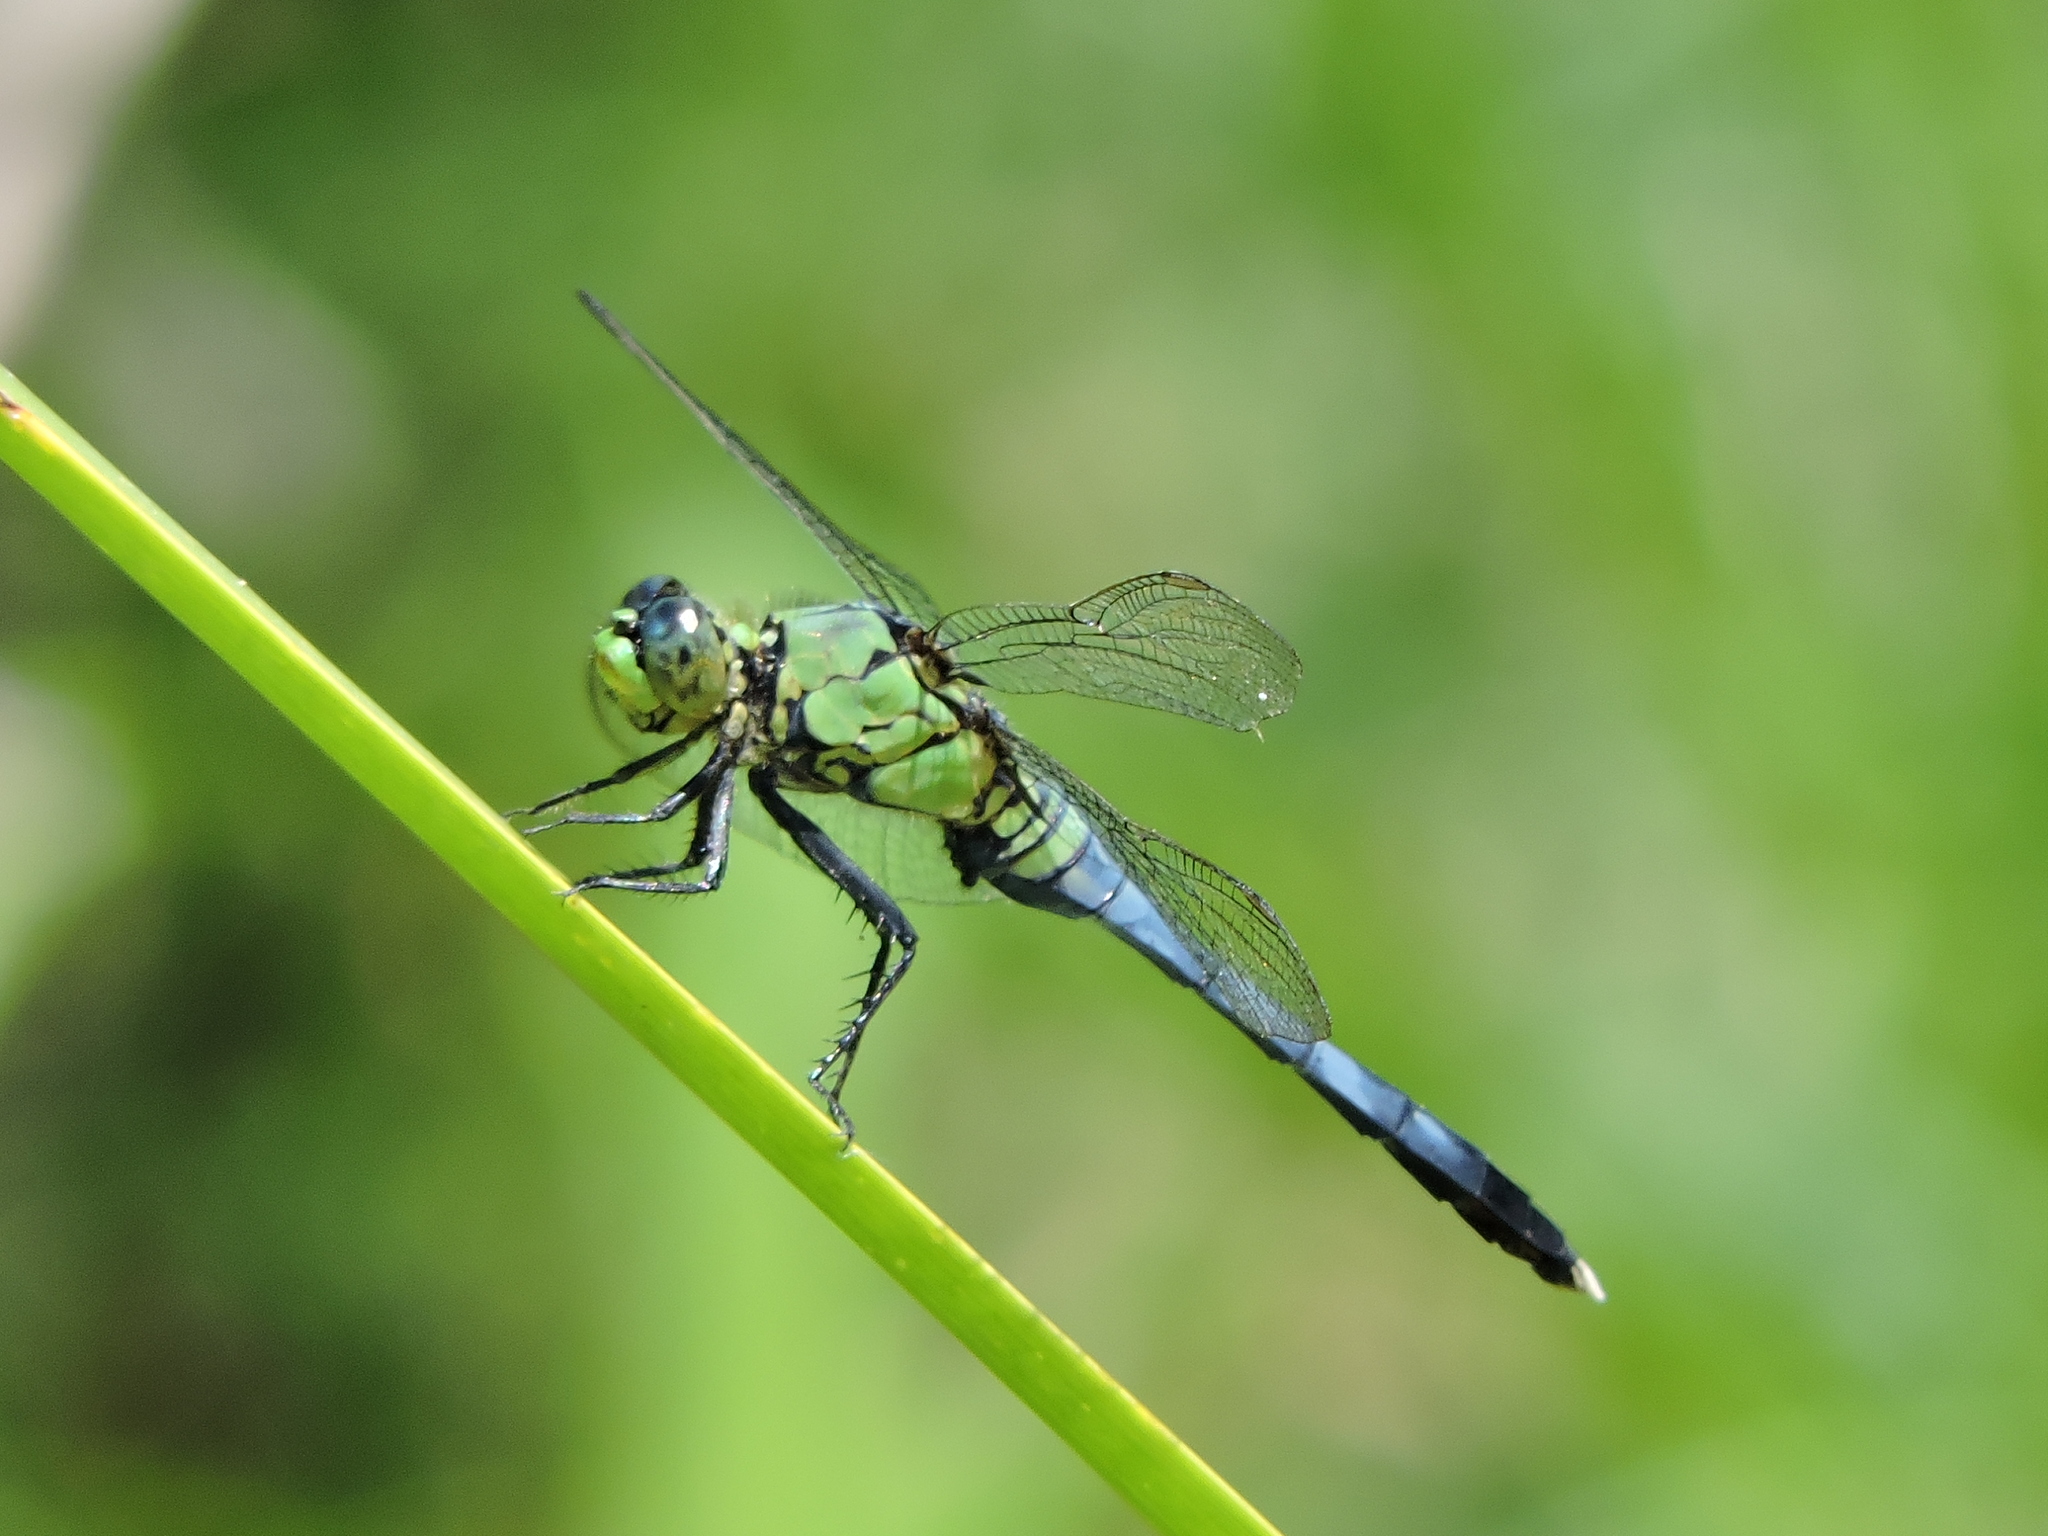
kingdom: Animalia
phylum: Arthropoda
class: Insecta
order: Odonata
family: Libellulidae
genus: Erythemis
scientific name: Erythemis simplicicollis
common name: Eastern pondhawk
